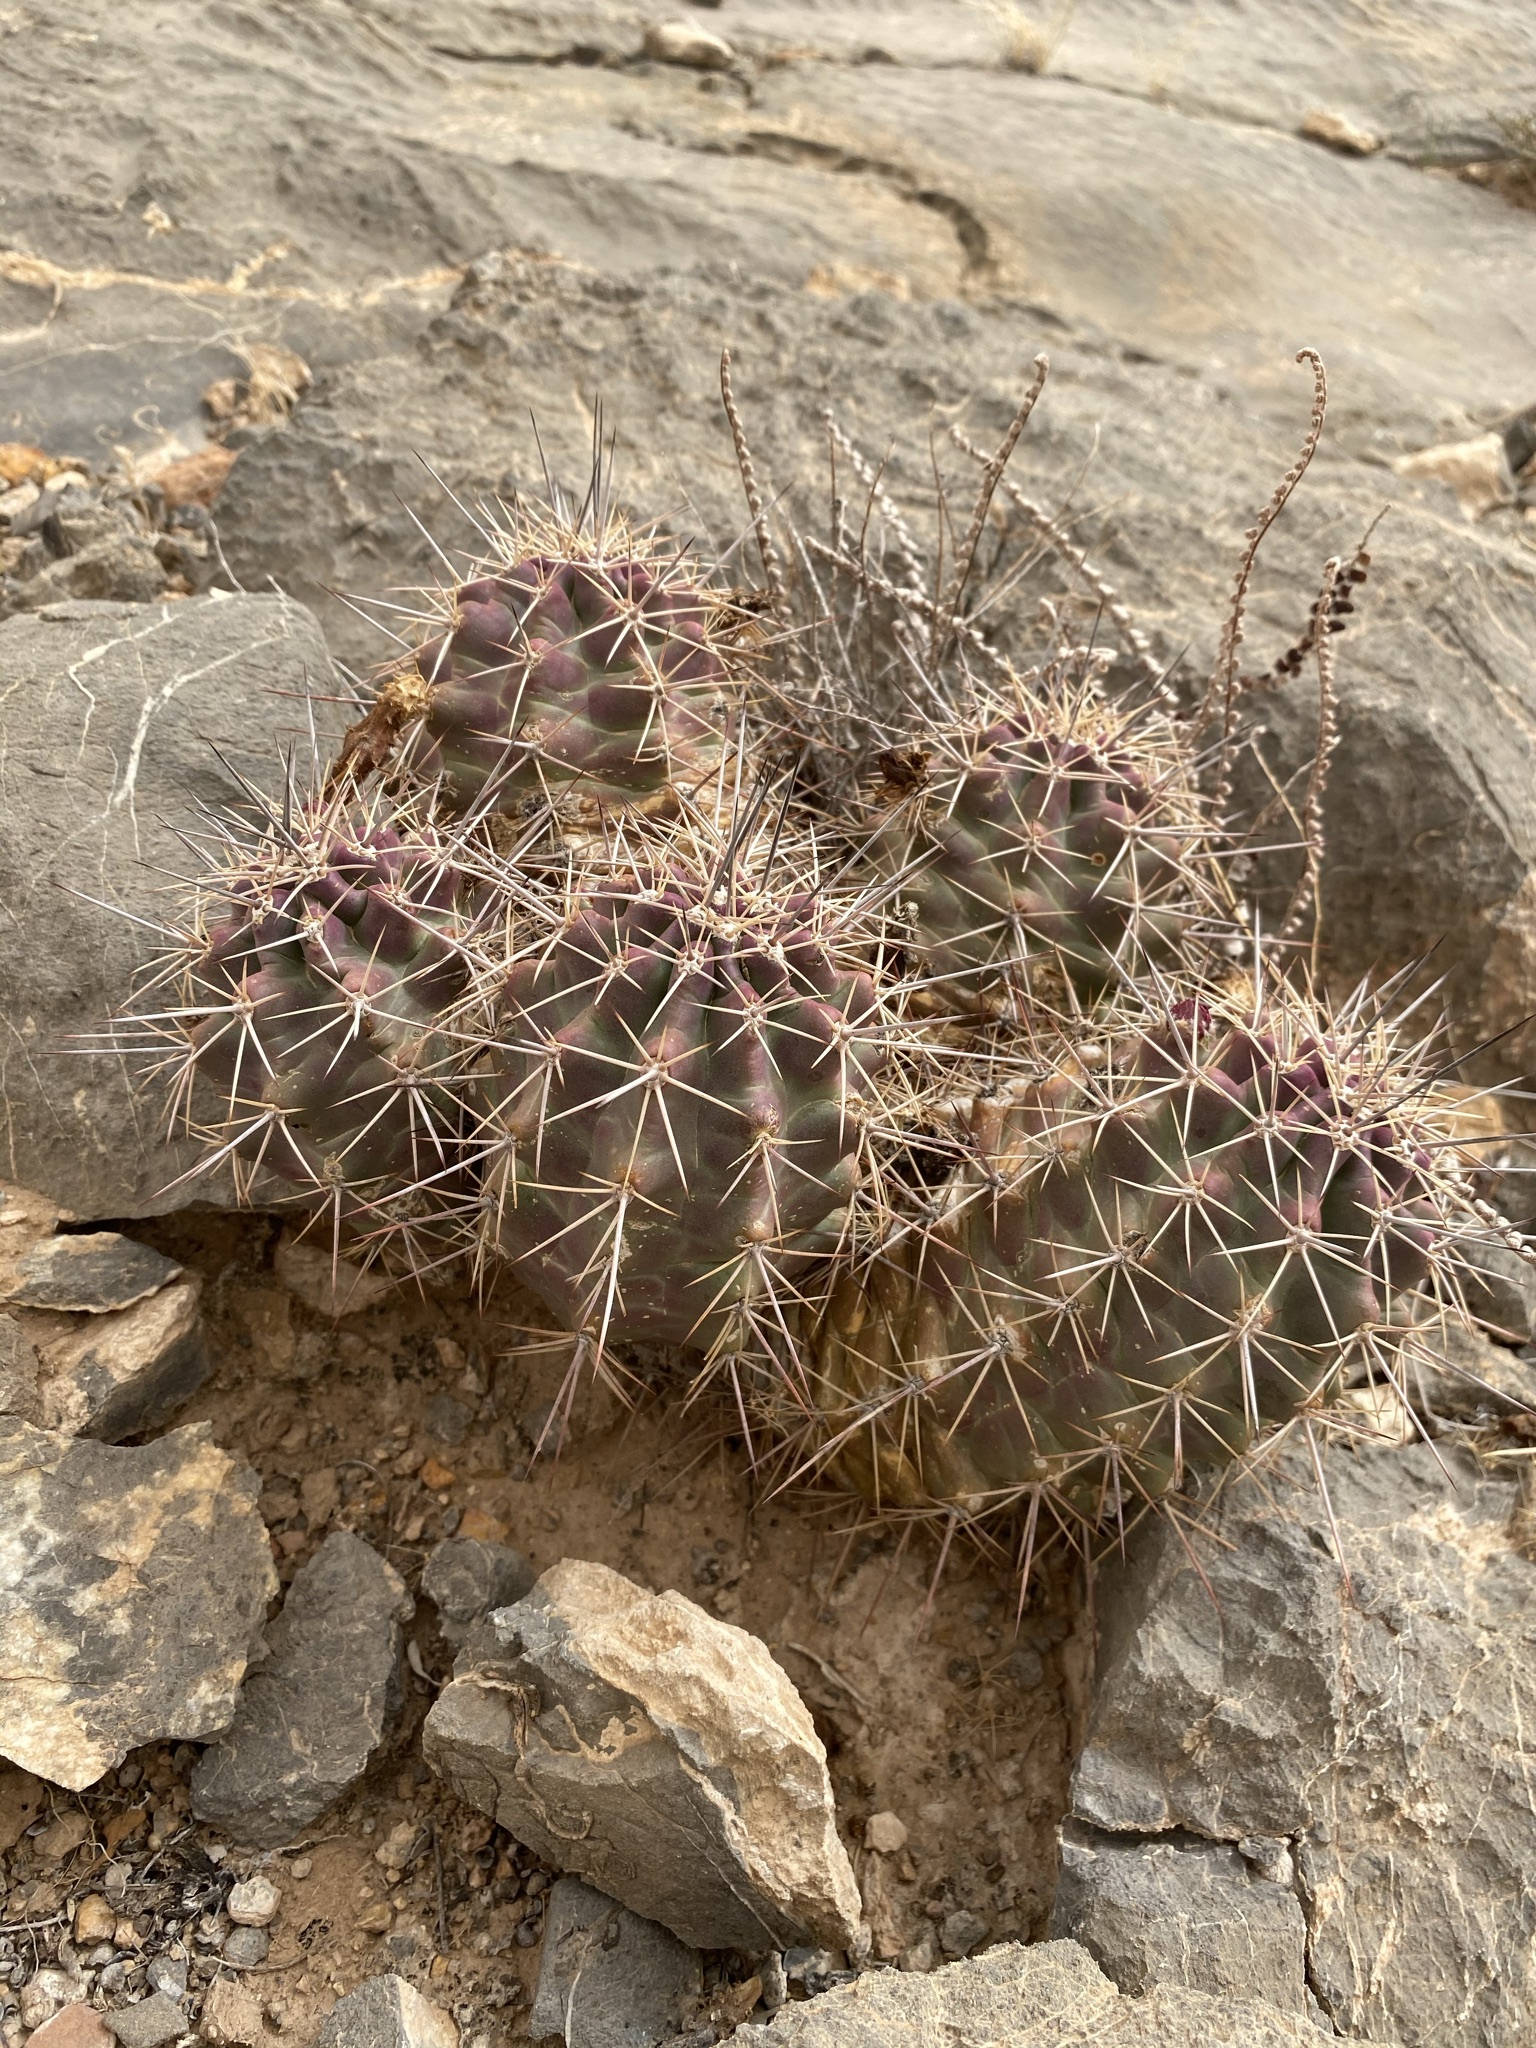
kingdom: Plantae
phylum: Tracheophyta
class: Magnoliopsida
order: Caryophyllales
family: Cactaceae
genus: Echinocereus
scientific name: Echinocereus coccineus
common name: Scarlet hedgehog cactus
